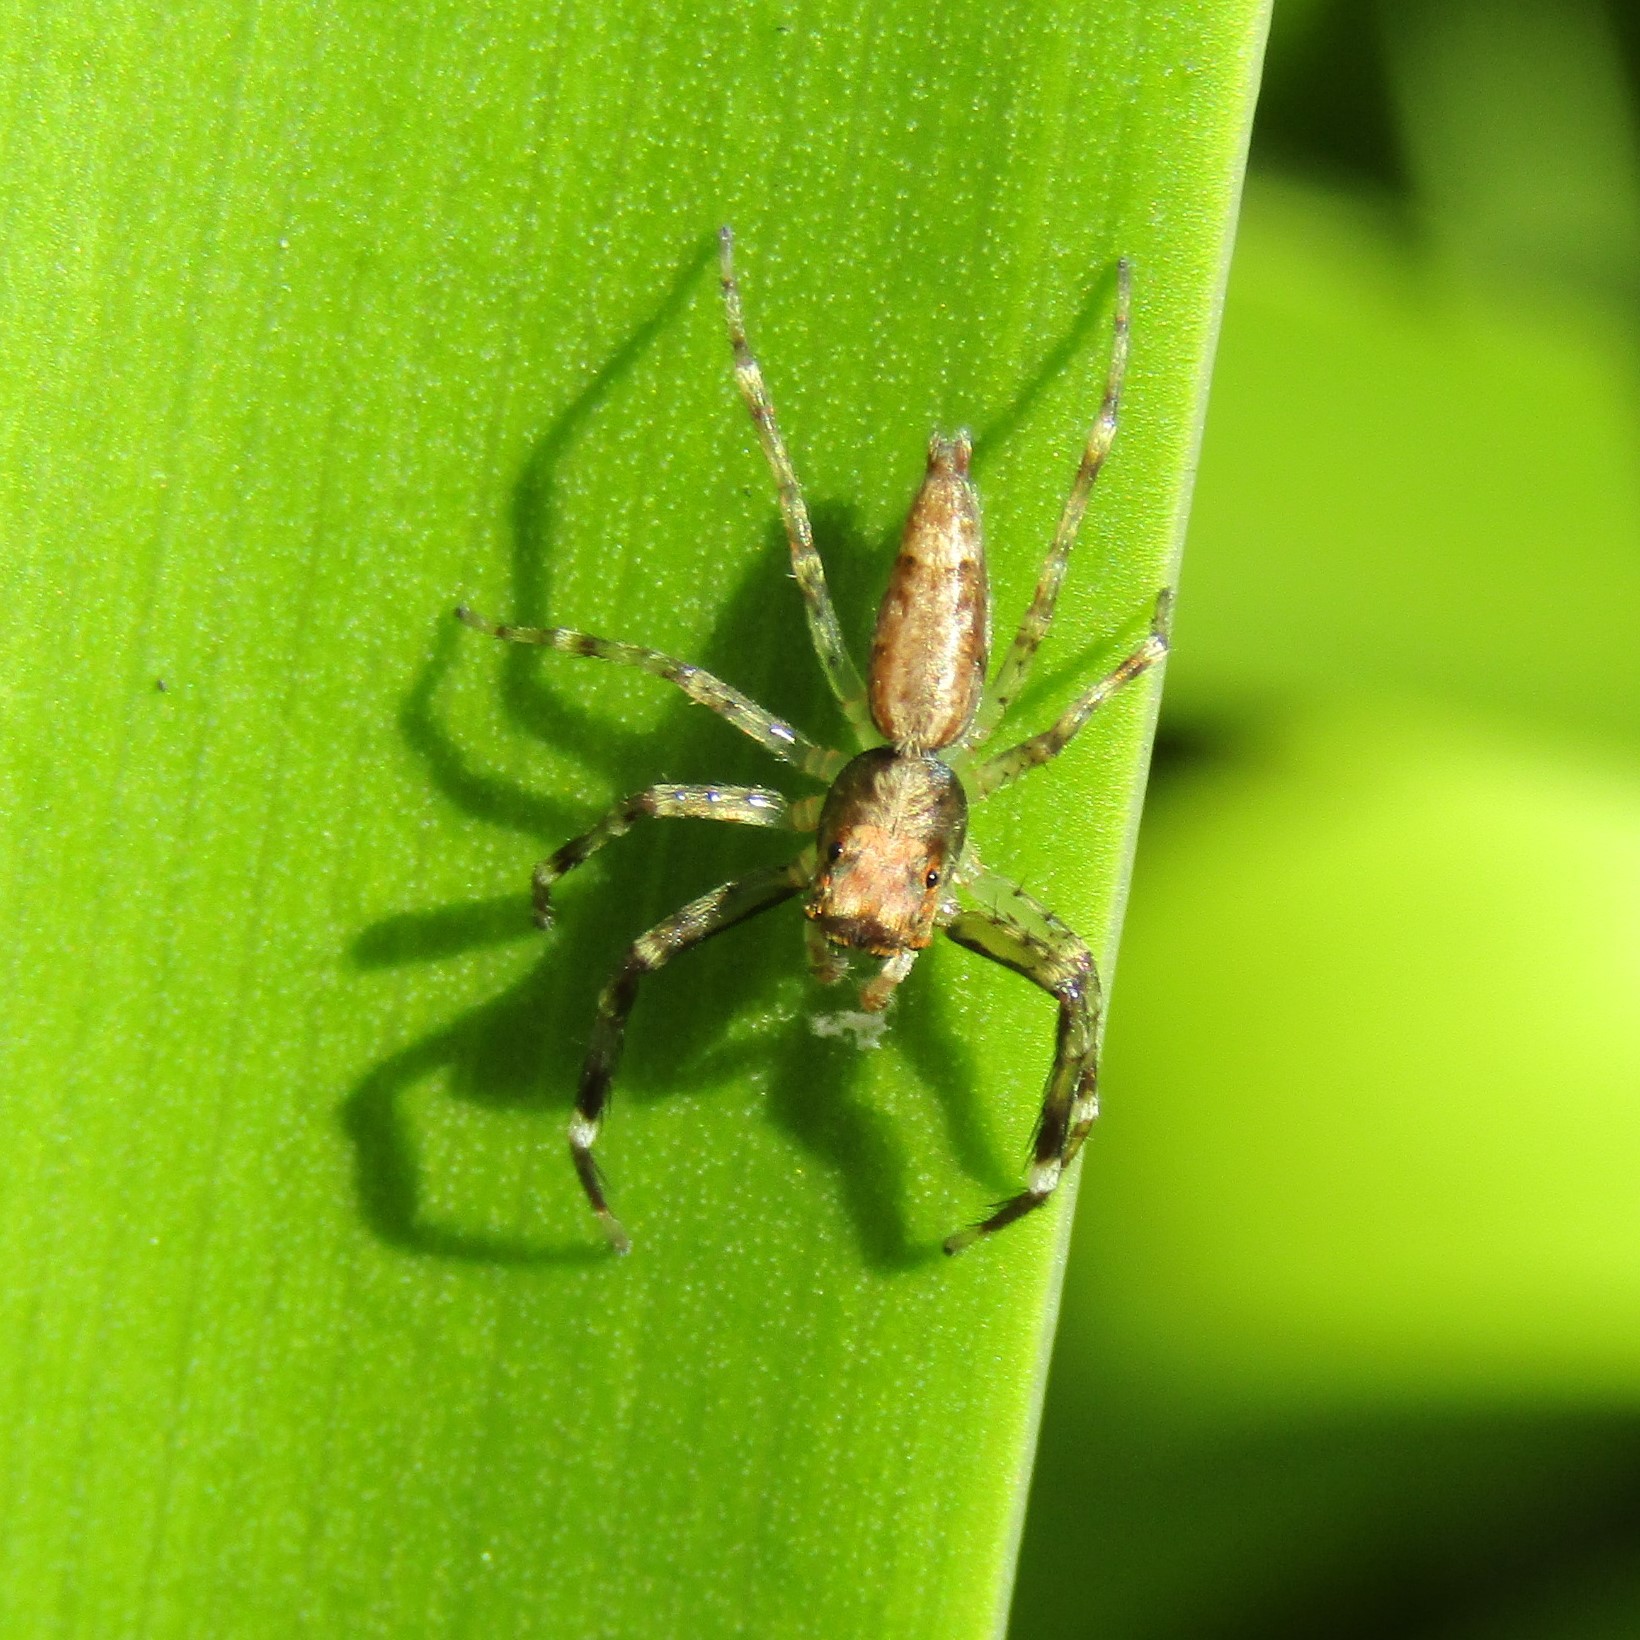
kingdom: Animalia
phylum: Arthropoda
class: Arachnida
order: Araneae
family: Salticidae
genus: Helpis
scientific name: Helpis minitabunda
